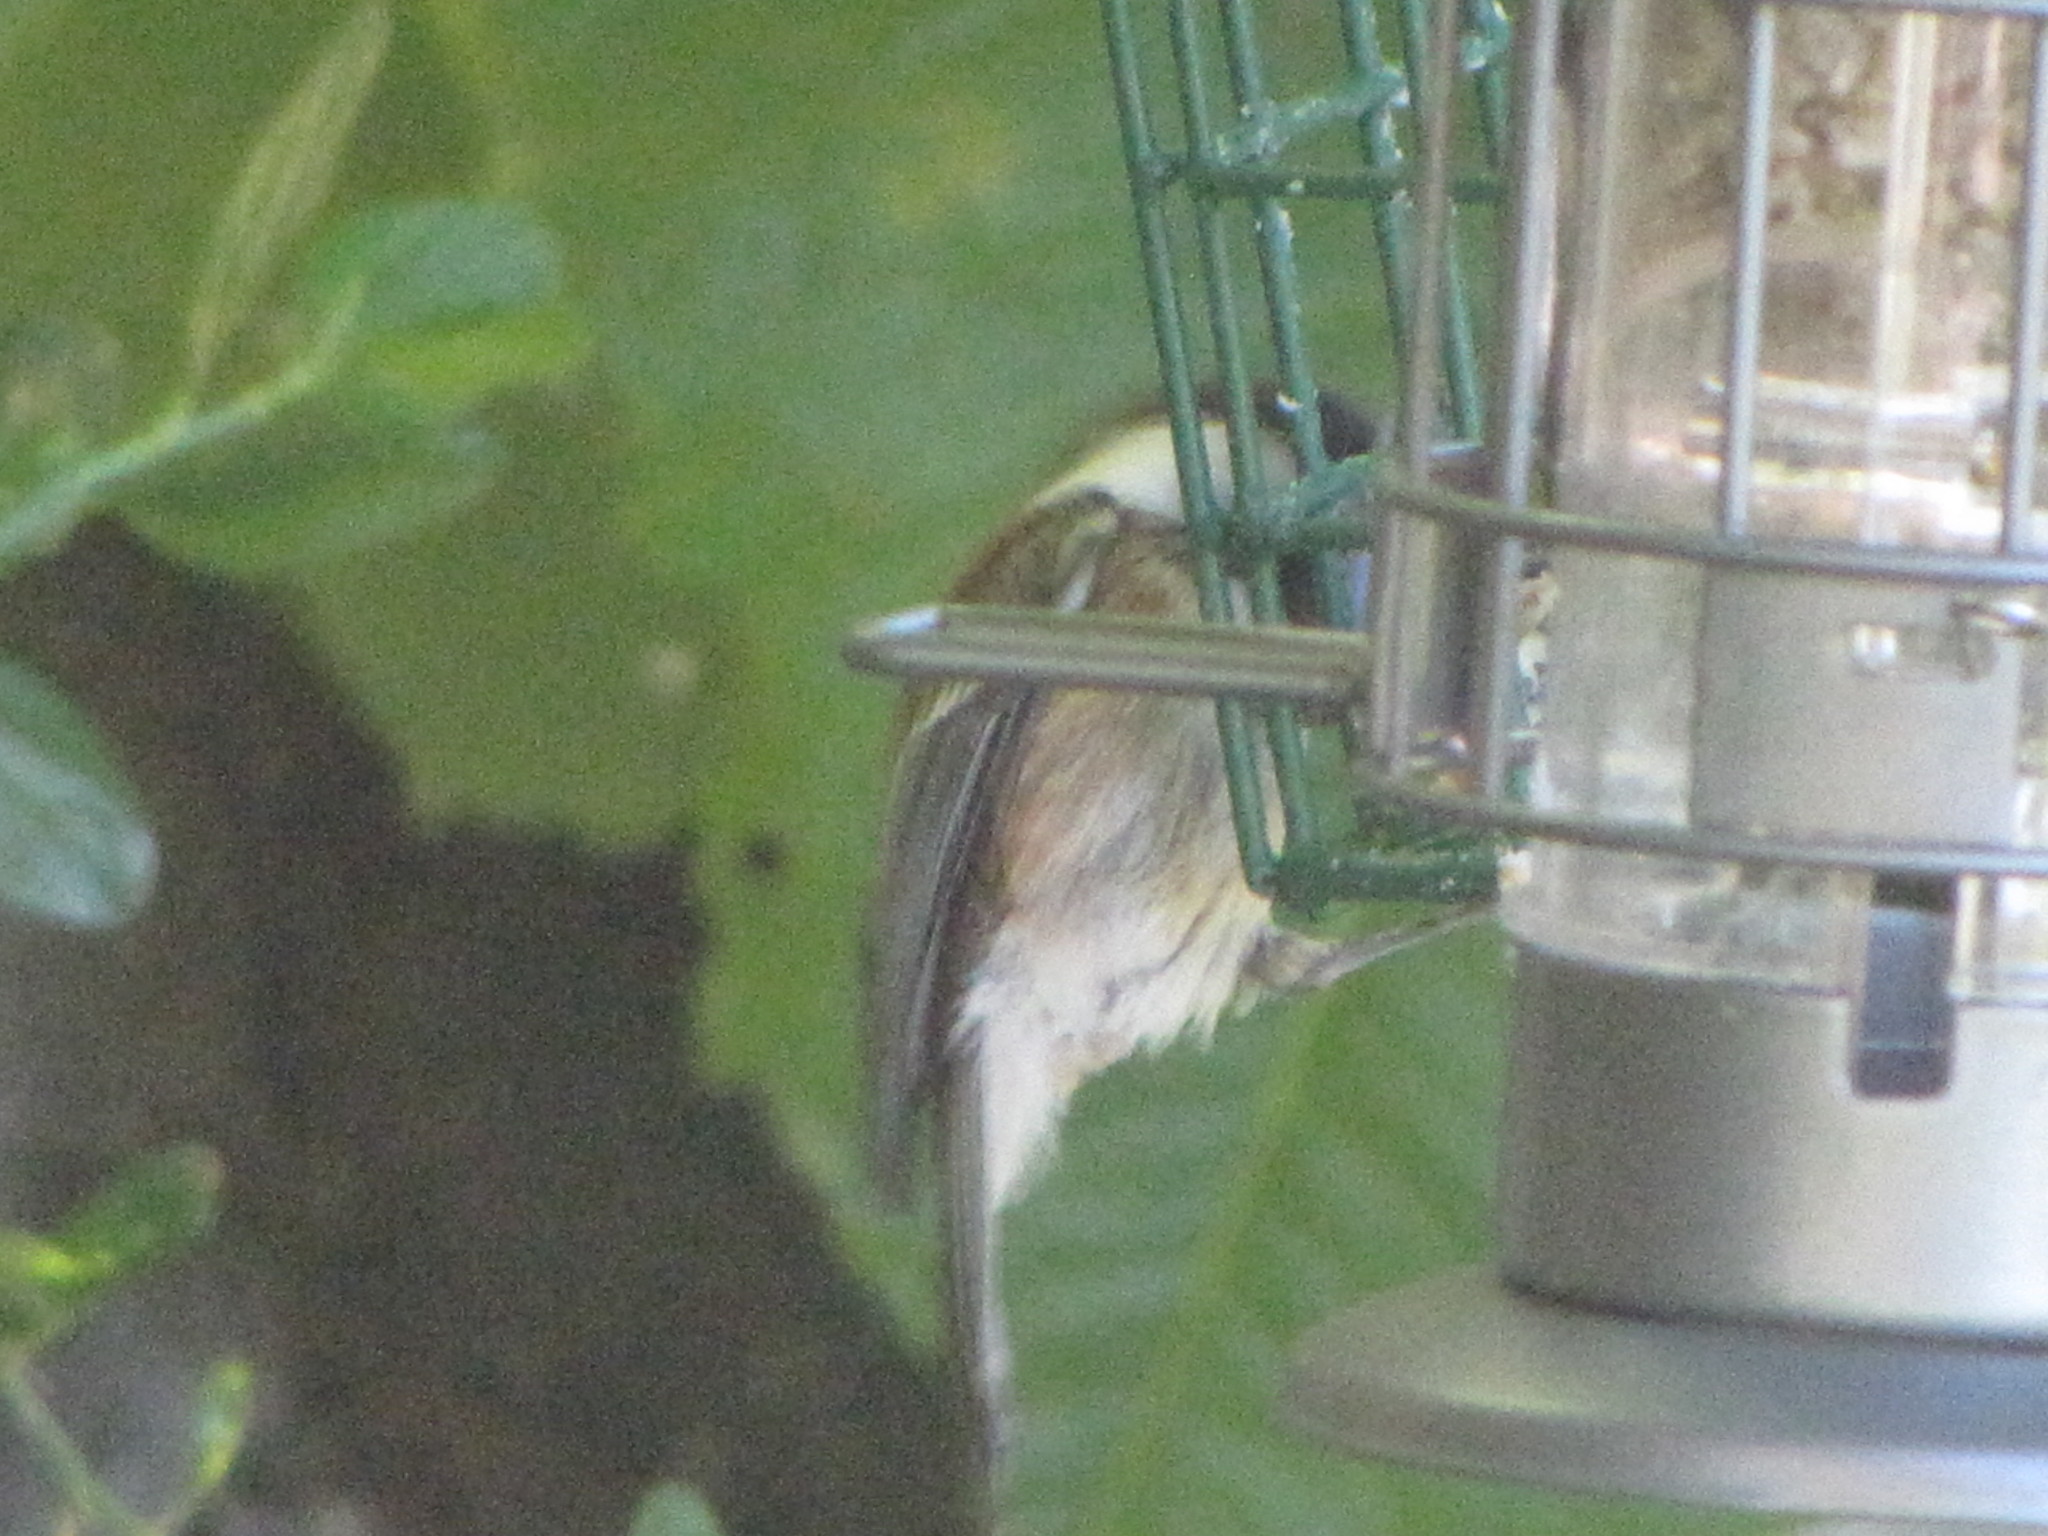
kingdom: Animalia
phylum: Chordata
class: Aves
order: Passeriformes
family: Paridae
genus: Poecile
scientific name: Poecile rufescens
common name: Chestnut-backed chickadee
